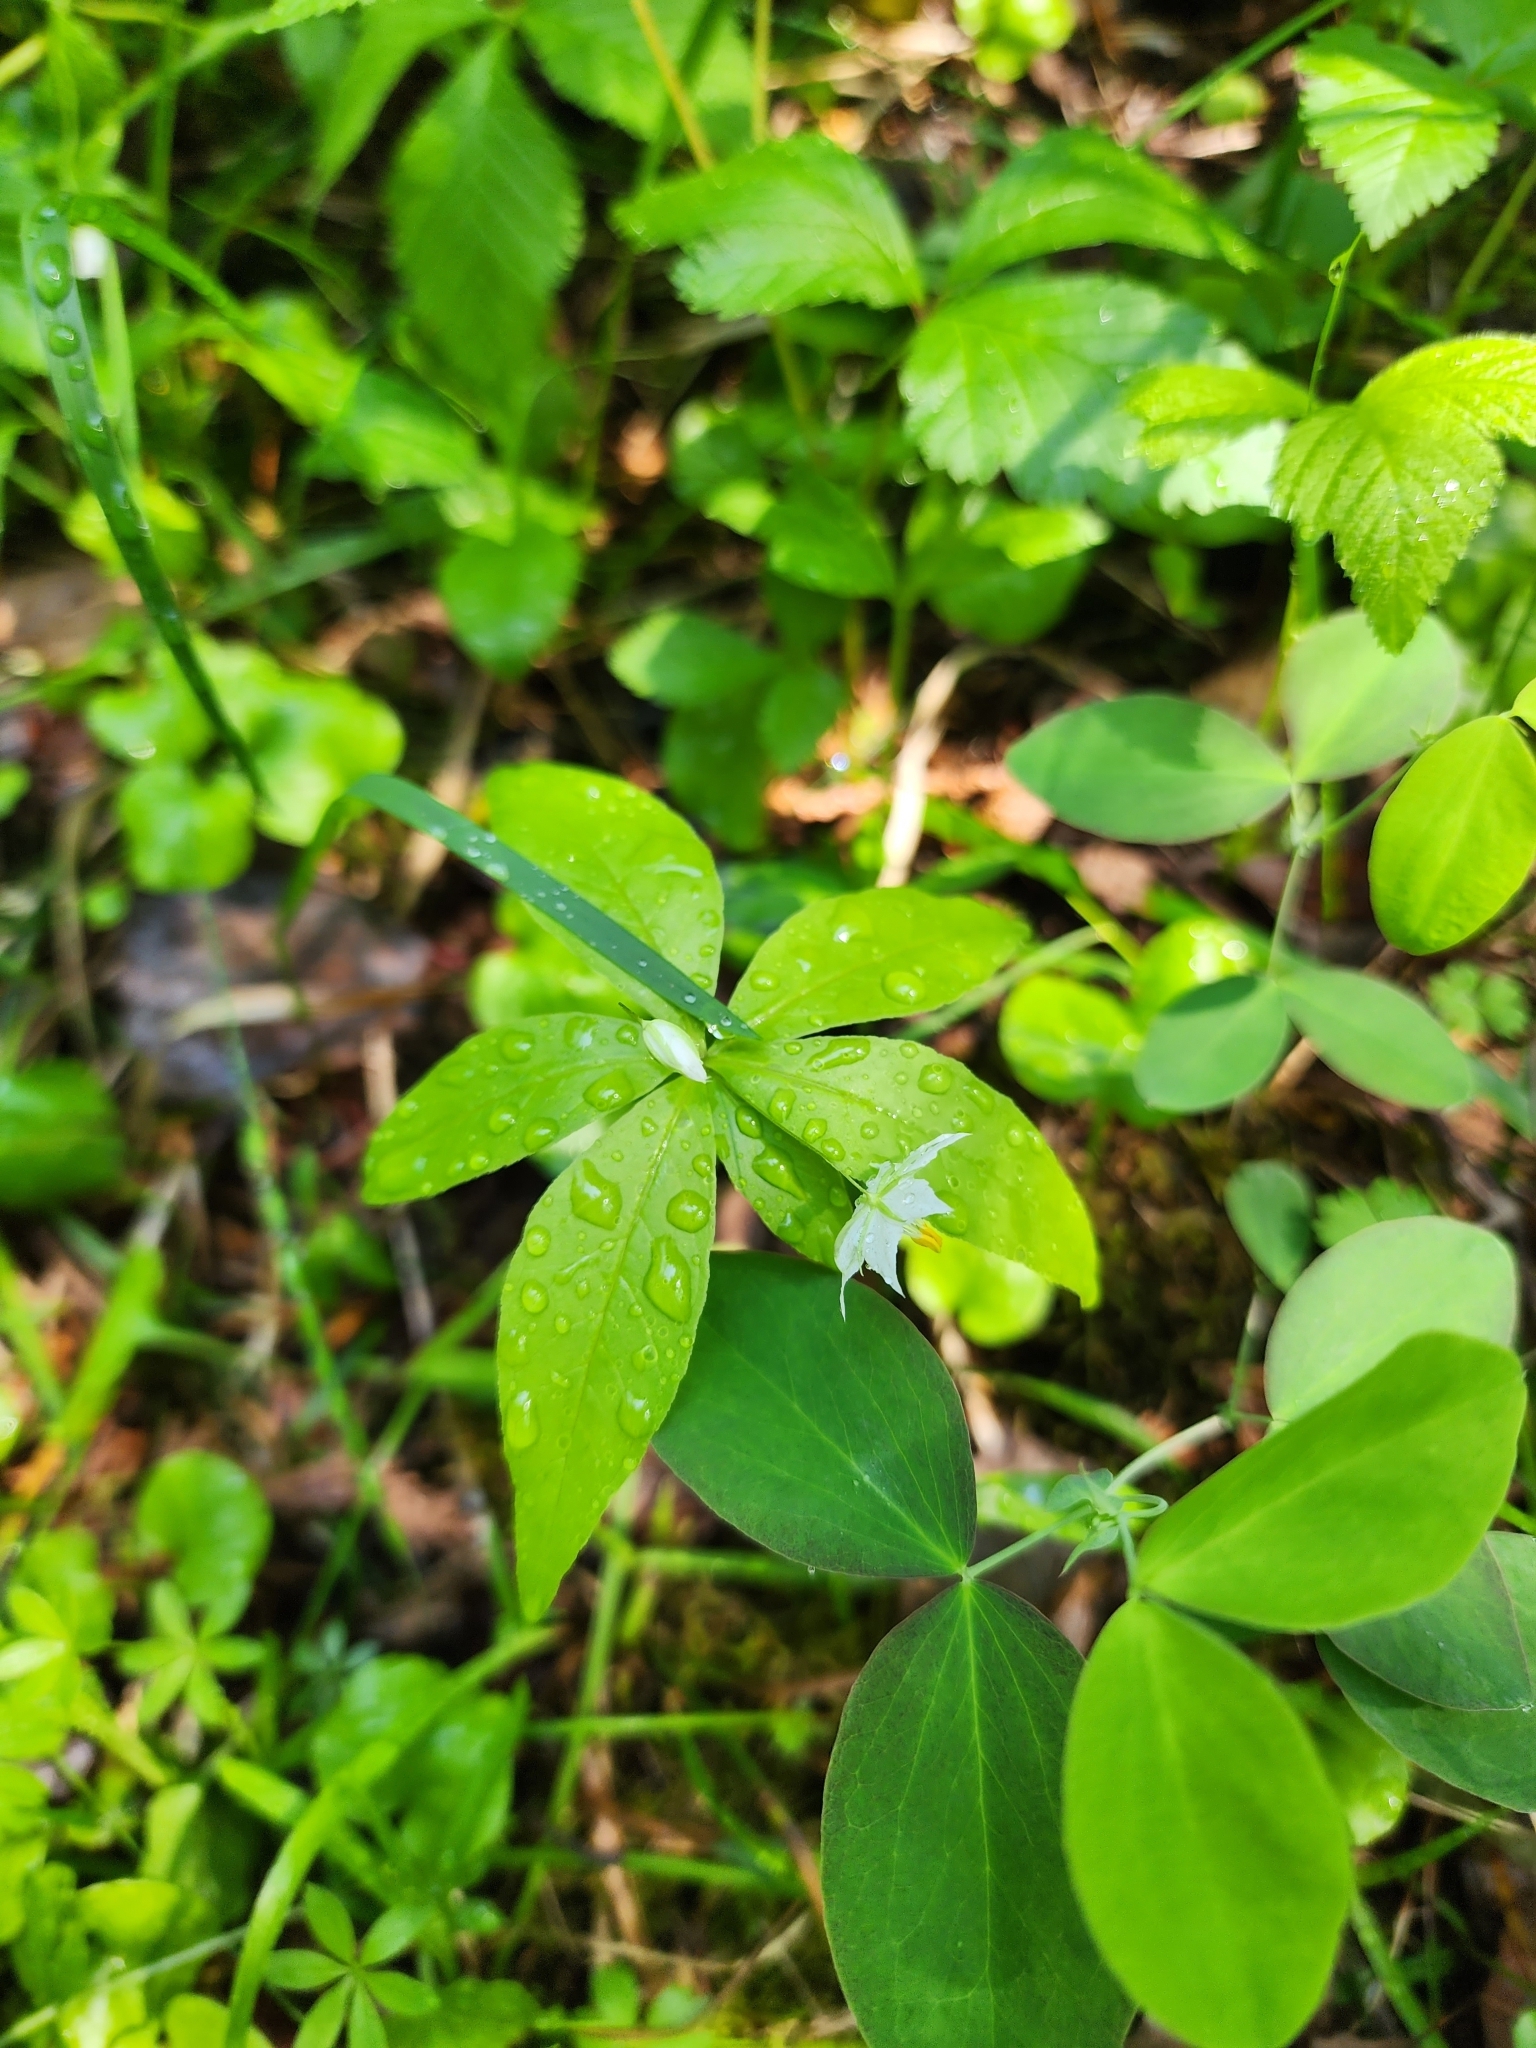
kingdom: Plantae
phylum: Tracheophyta
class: Magnoliopsida
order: Ericales
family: Primulaceae
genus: Lysimachia
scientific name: Lysimachia borealis
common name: American starflower
